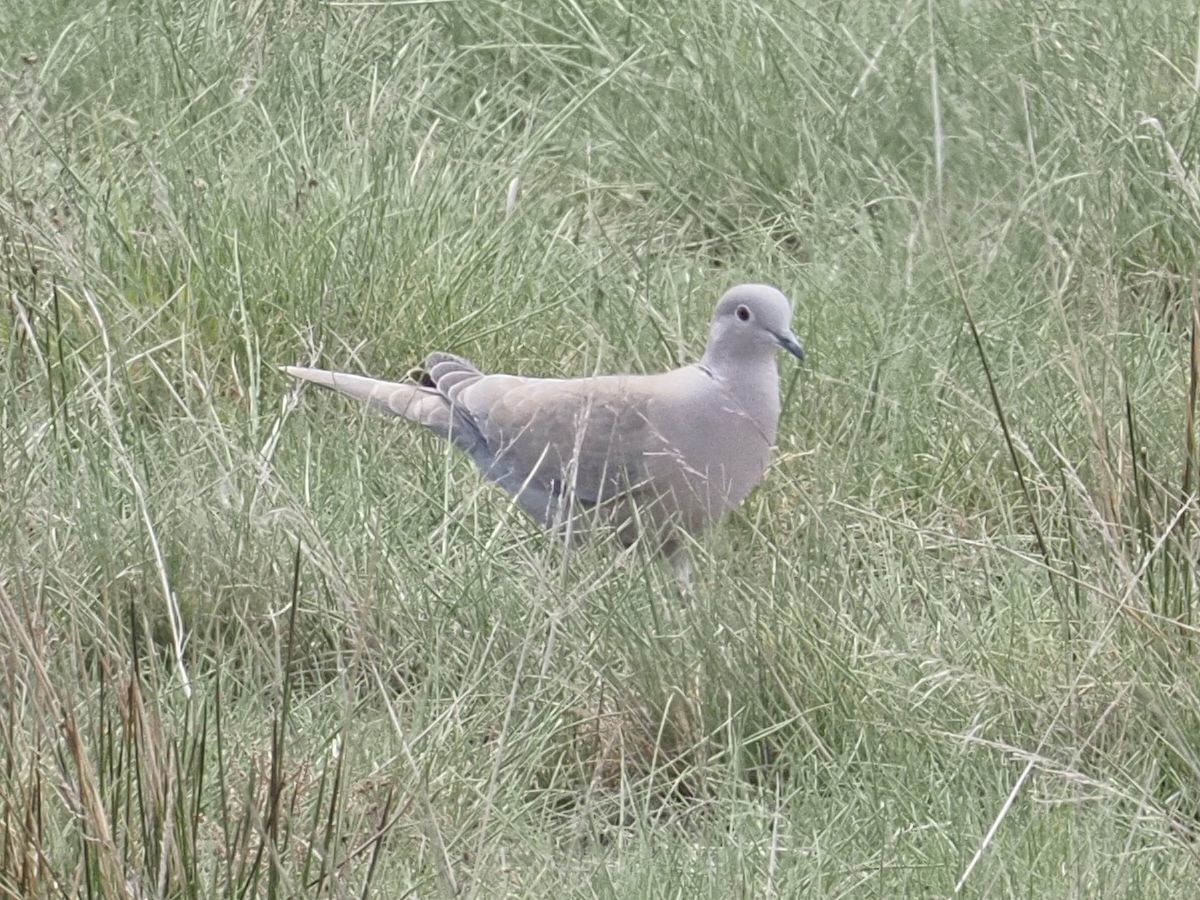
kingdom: Animalia
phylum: Chordata
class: Aves
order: Columbiformes
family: Columbidae
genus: Streptopelia
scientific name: Streptopelia decaocto
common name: Eurasian collared dove
